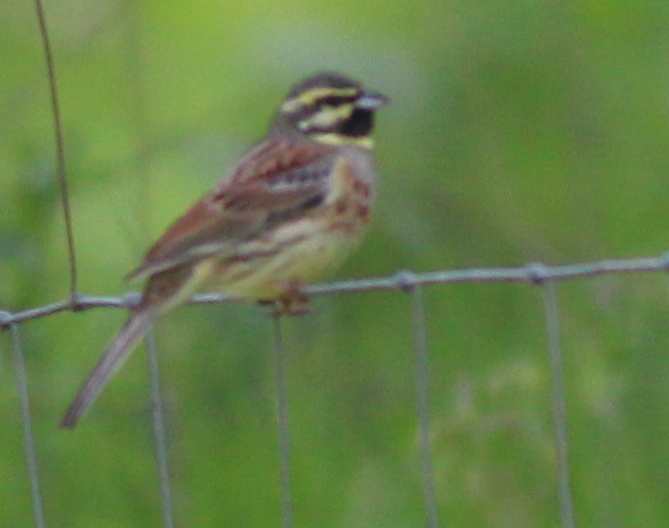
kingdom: Animalia
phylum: Chordata
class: Aves
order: Passeriformes
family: Emberizidae
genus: Emberiza
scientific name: Emberiza cirlus
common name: Cirl bunting
